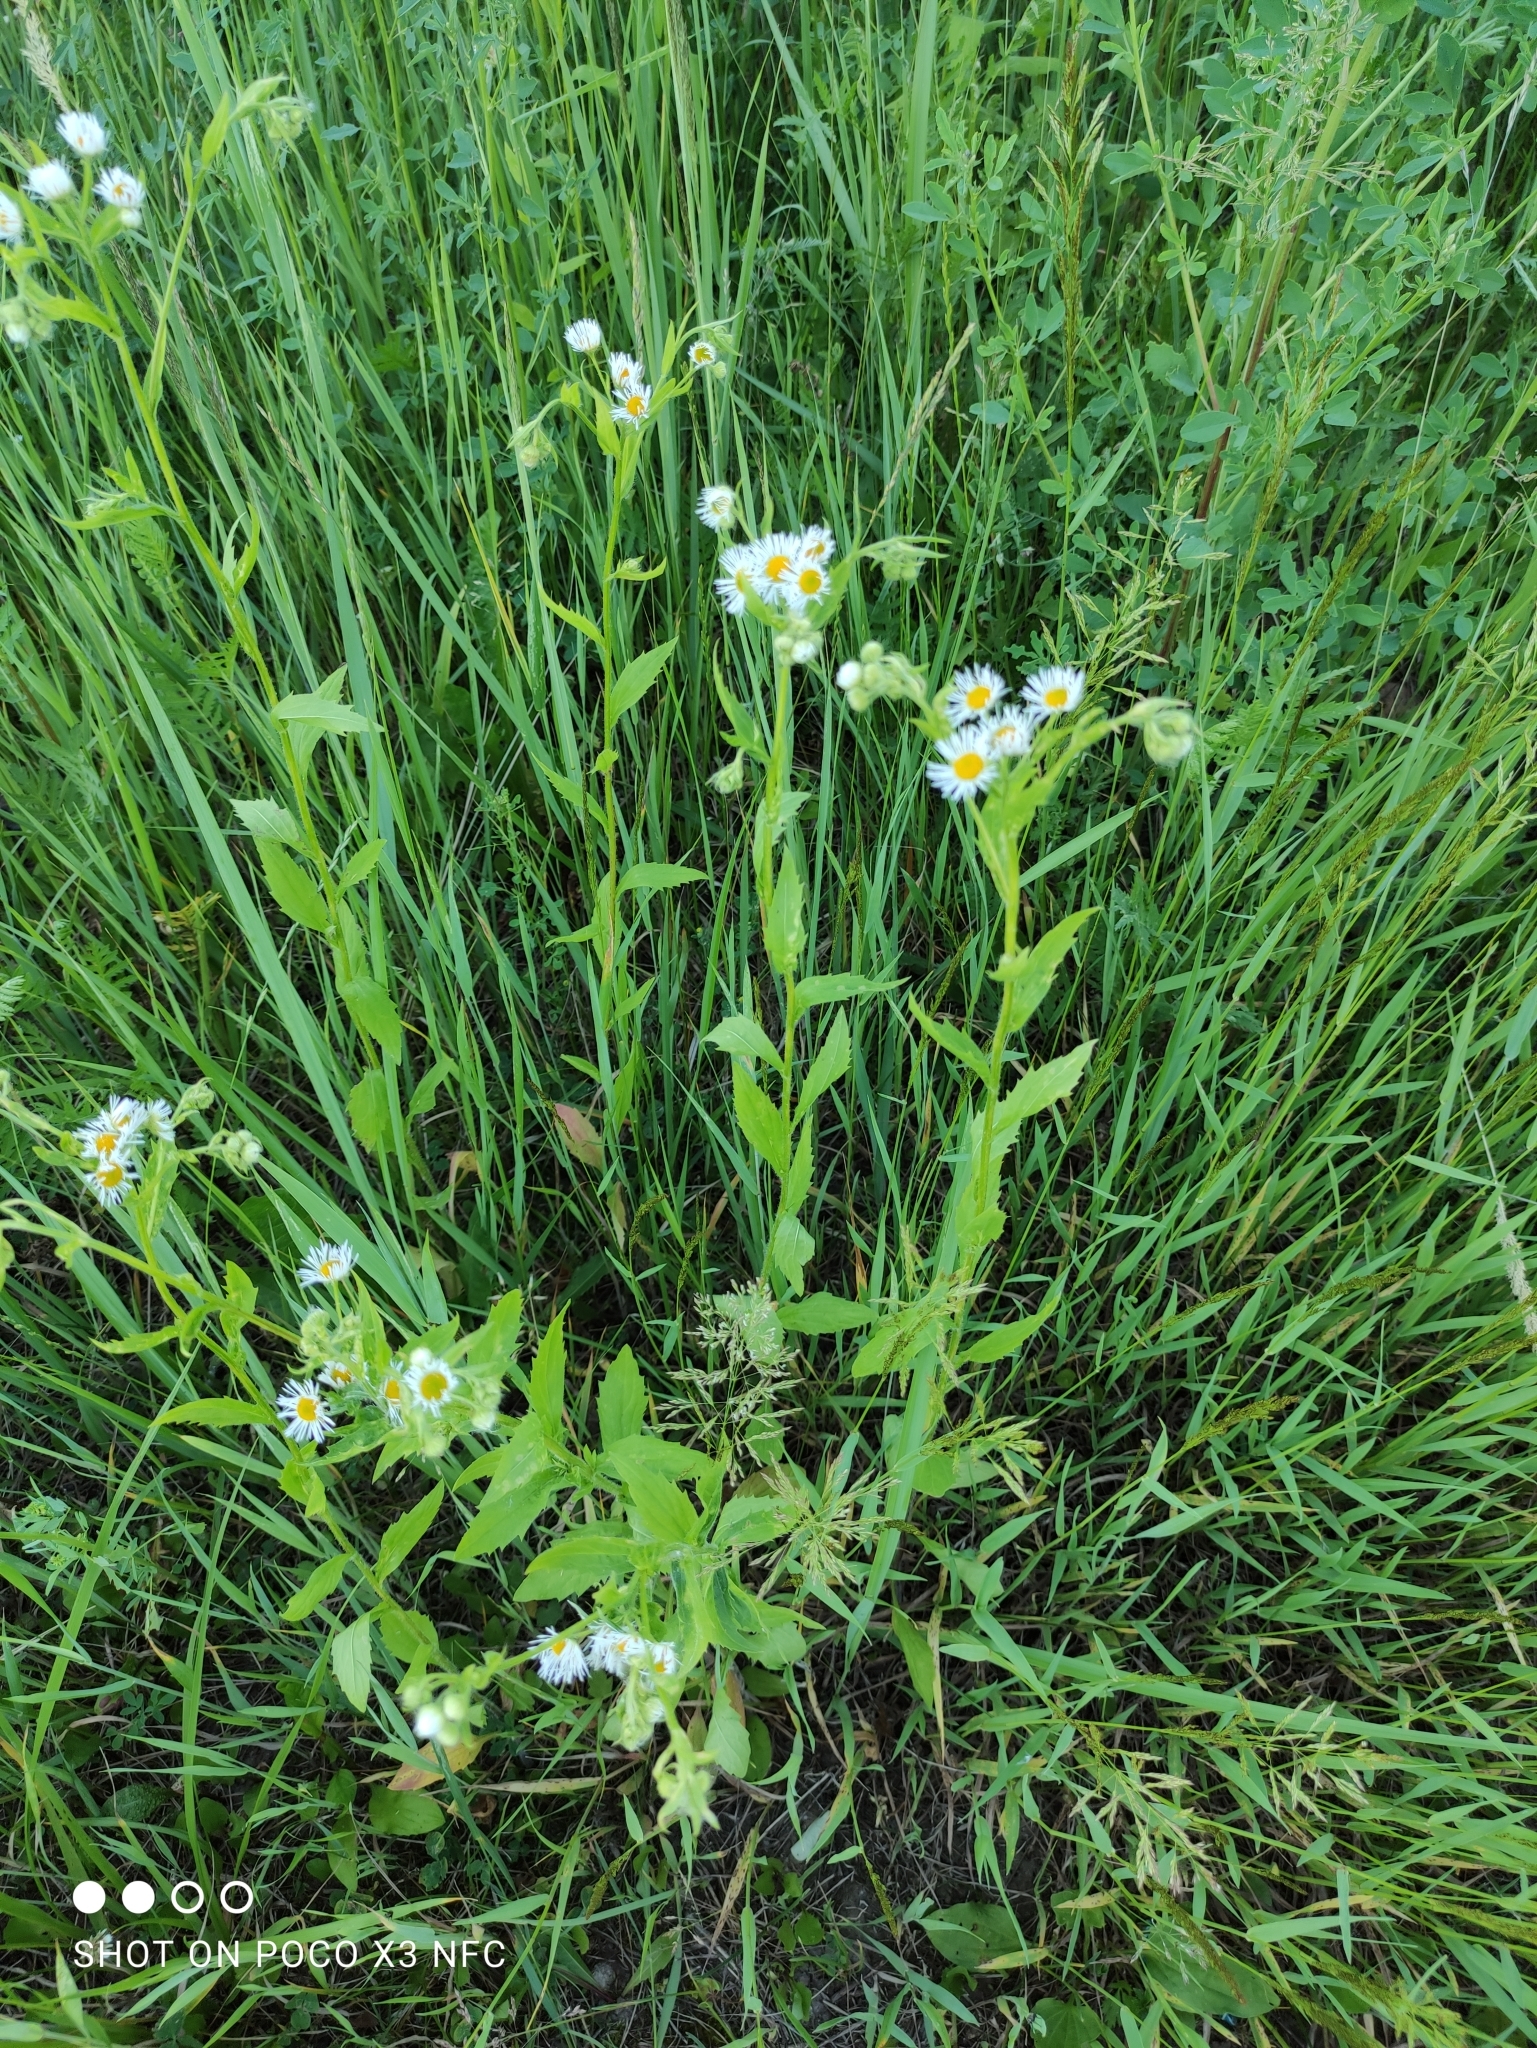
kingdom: Plantae
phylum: Tracheophyta
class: Magnoliopsida
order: Asterales
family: Asteraceae
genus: Erigeron
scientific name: Erigeron annuus
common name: Tall fleabane
